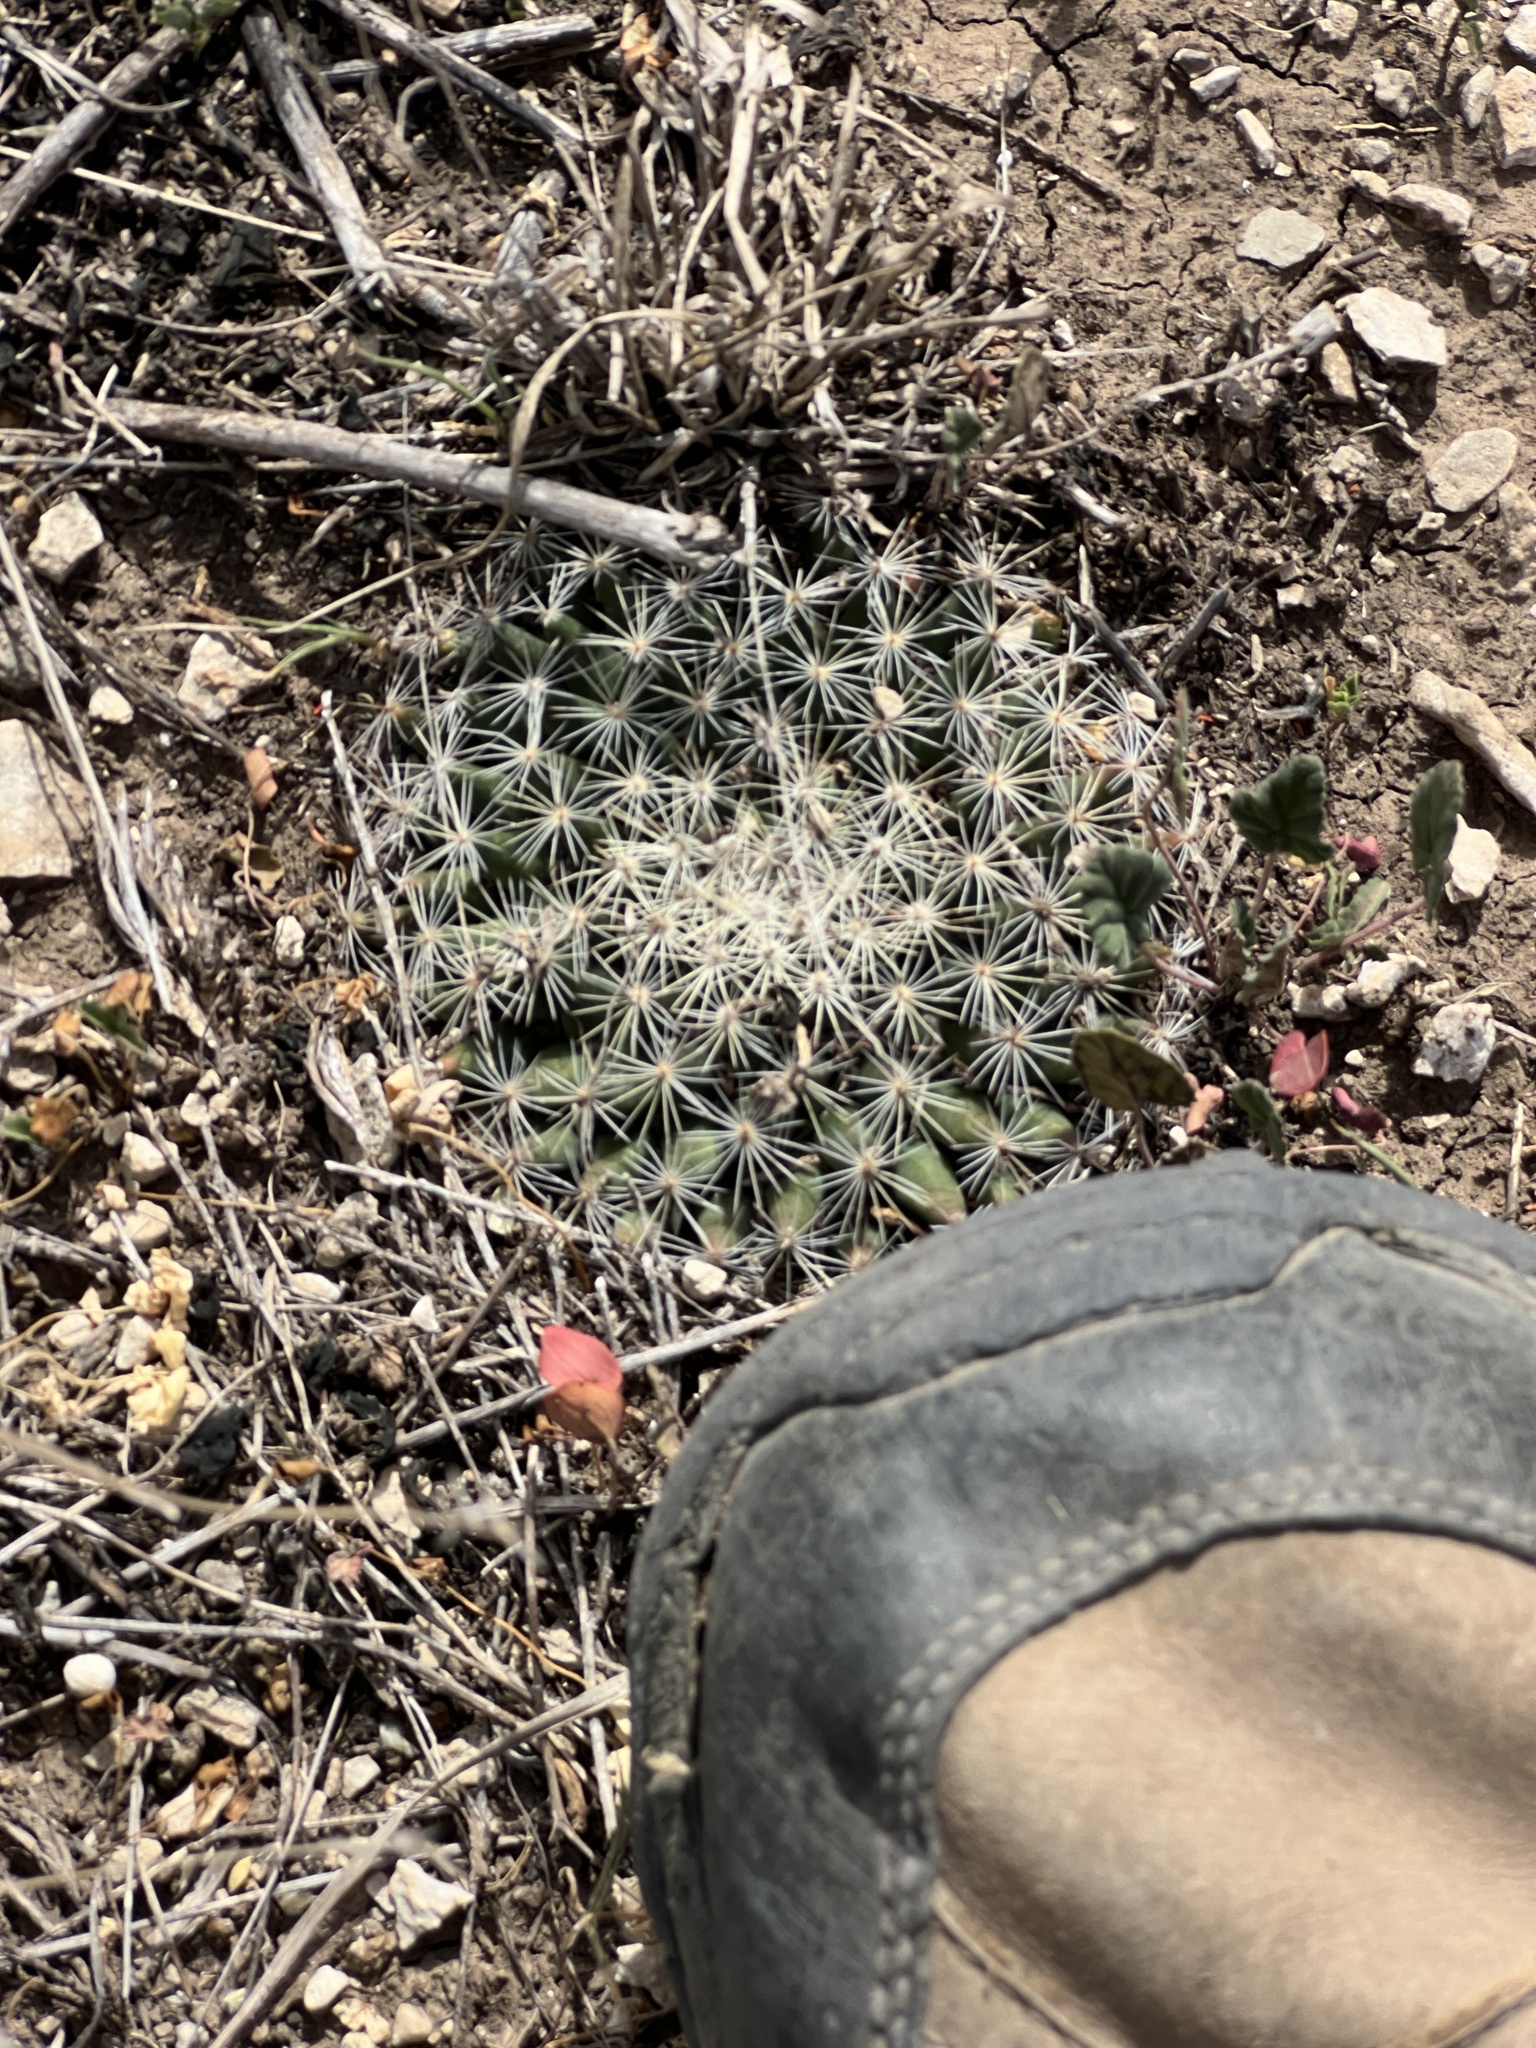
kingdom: Plantae
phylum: Tracheophyta
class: Magnoliopsida
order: Caryophyllales
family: Cactaceae
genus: Mammillaria
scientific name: Mammillaria heyderi
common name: Little nipple cactus
